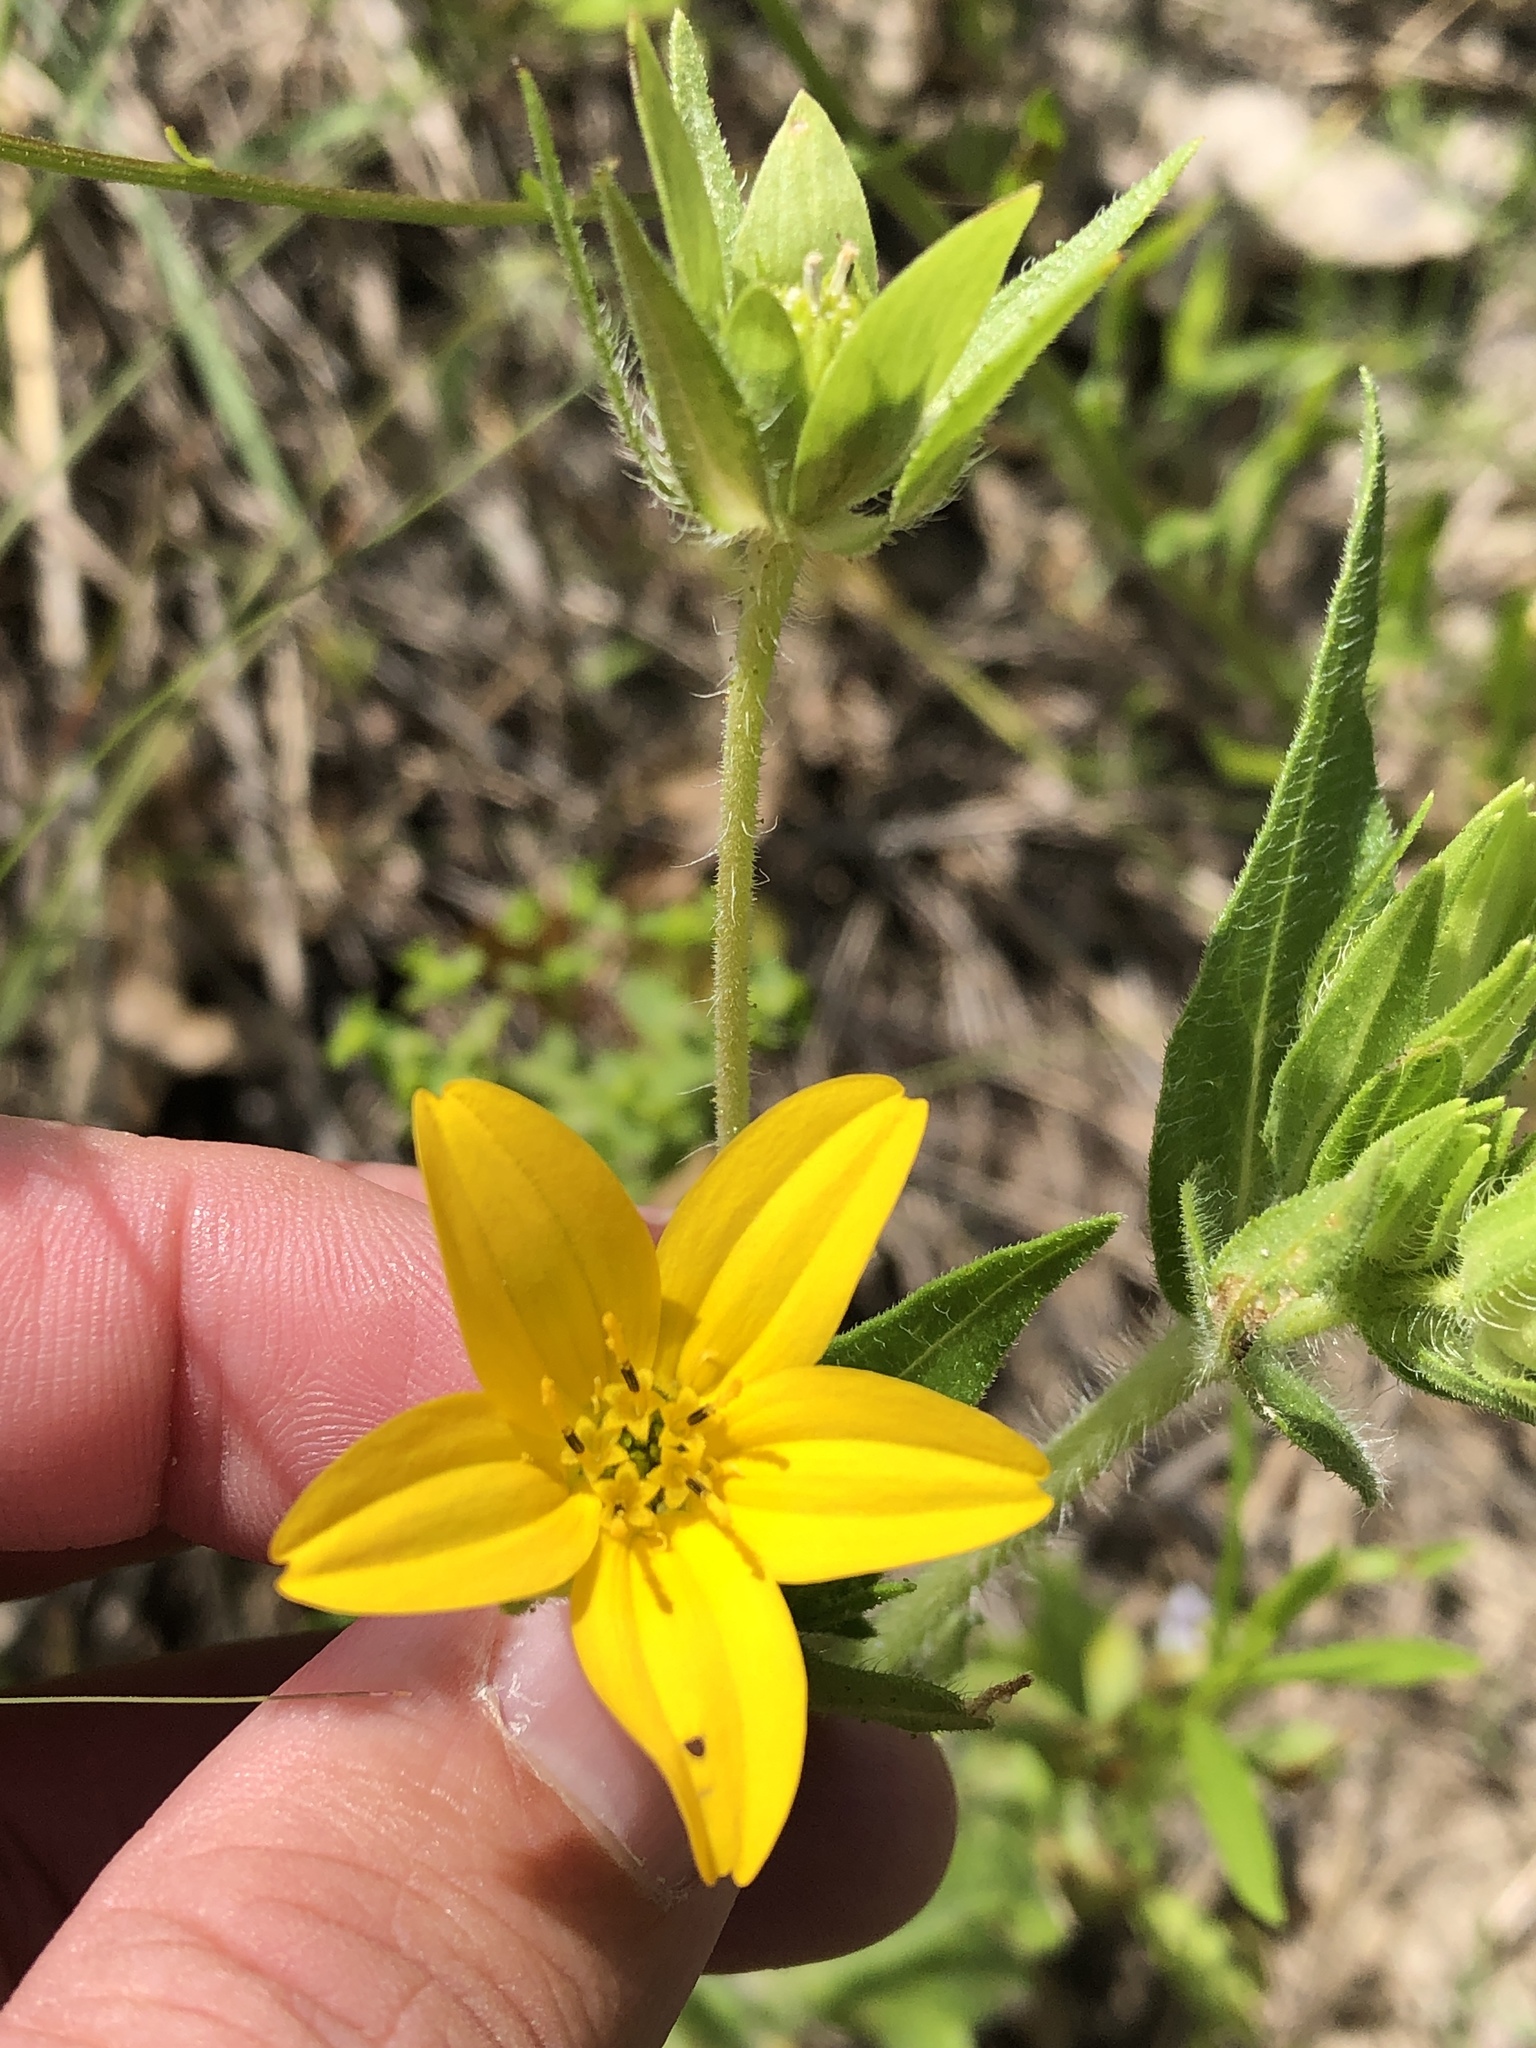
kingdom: Plantae
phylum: Tracheophyta
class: Magnoliopsida
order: Asterales
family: Asteraceae
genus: Lindheimera
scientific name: Lindheimera texana
